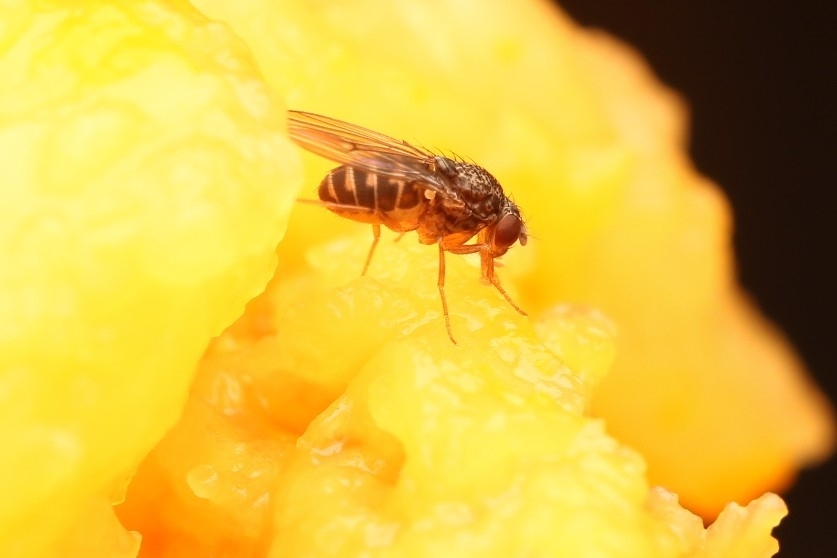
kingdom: Animalia
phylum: Arthropoda
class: Insecta
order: Diptera
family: Drosophilidae
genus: Drosophila
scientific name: Drosophila hydei
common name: Pomace fly
